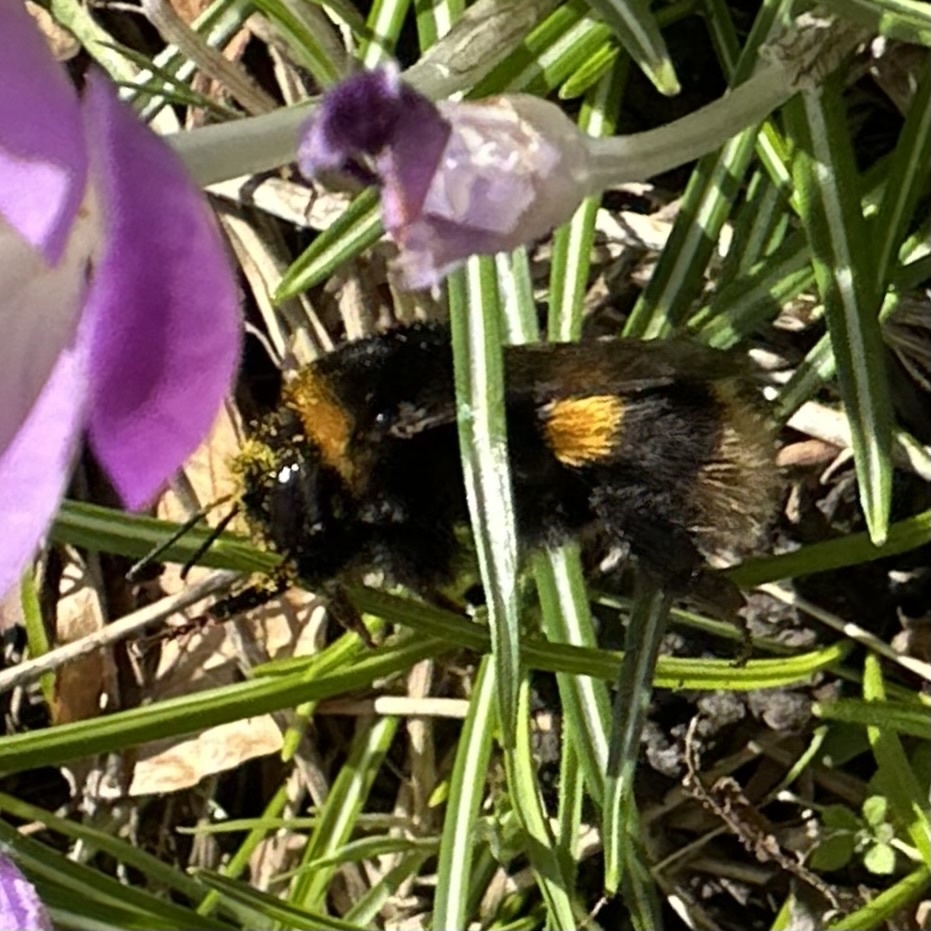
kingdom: Animalia
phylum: Arthropoda
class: Insecta
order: Hymenoptera
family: Apidae
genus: Bombus
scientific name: Bombus terrestris
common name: Buff-tailed bumblebee
